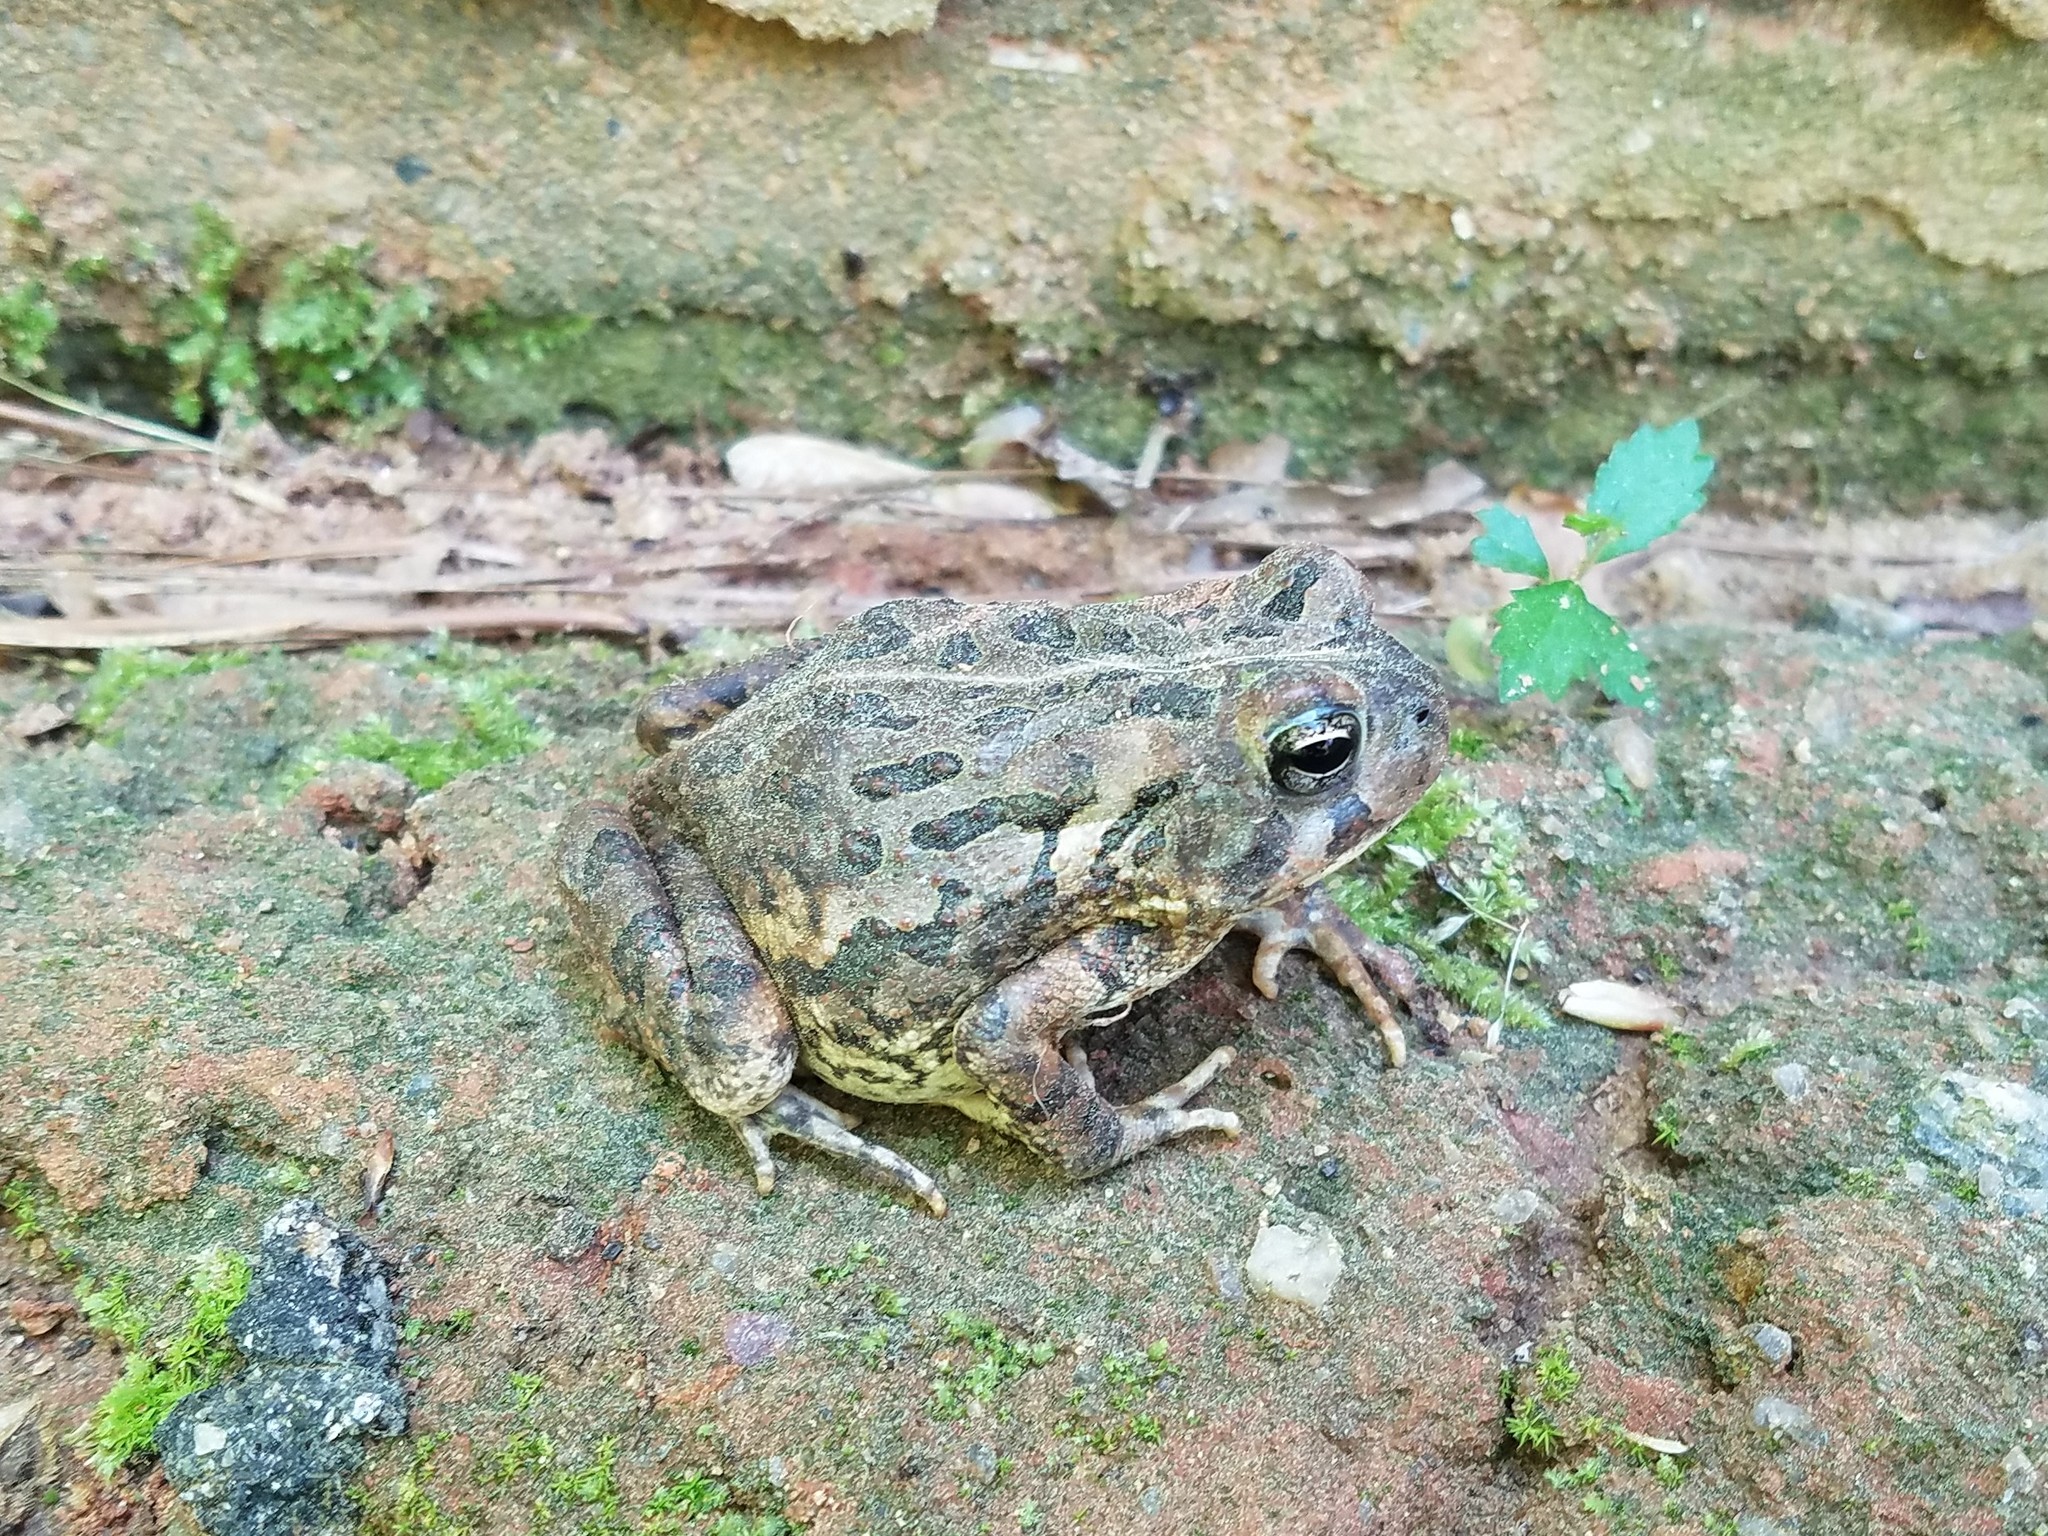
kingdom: Animalia
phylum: Chordata
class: Amphibia
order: Anura
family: Bufonidae
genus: Anaxyrus
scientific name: Anaxyrus fowleri
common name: Fowler's toad
